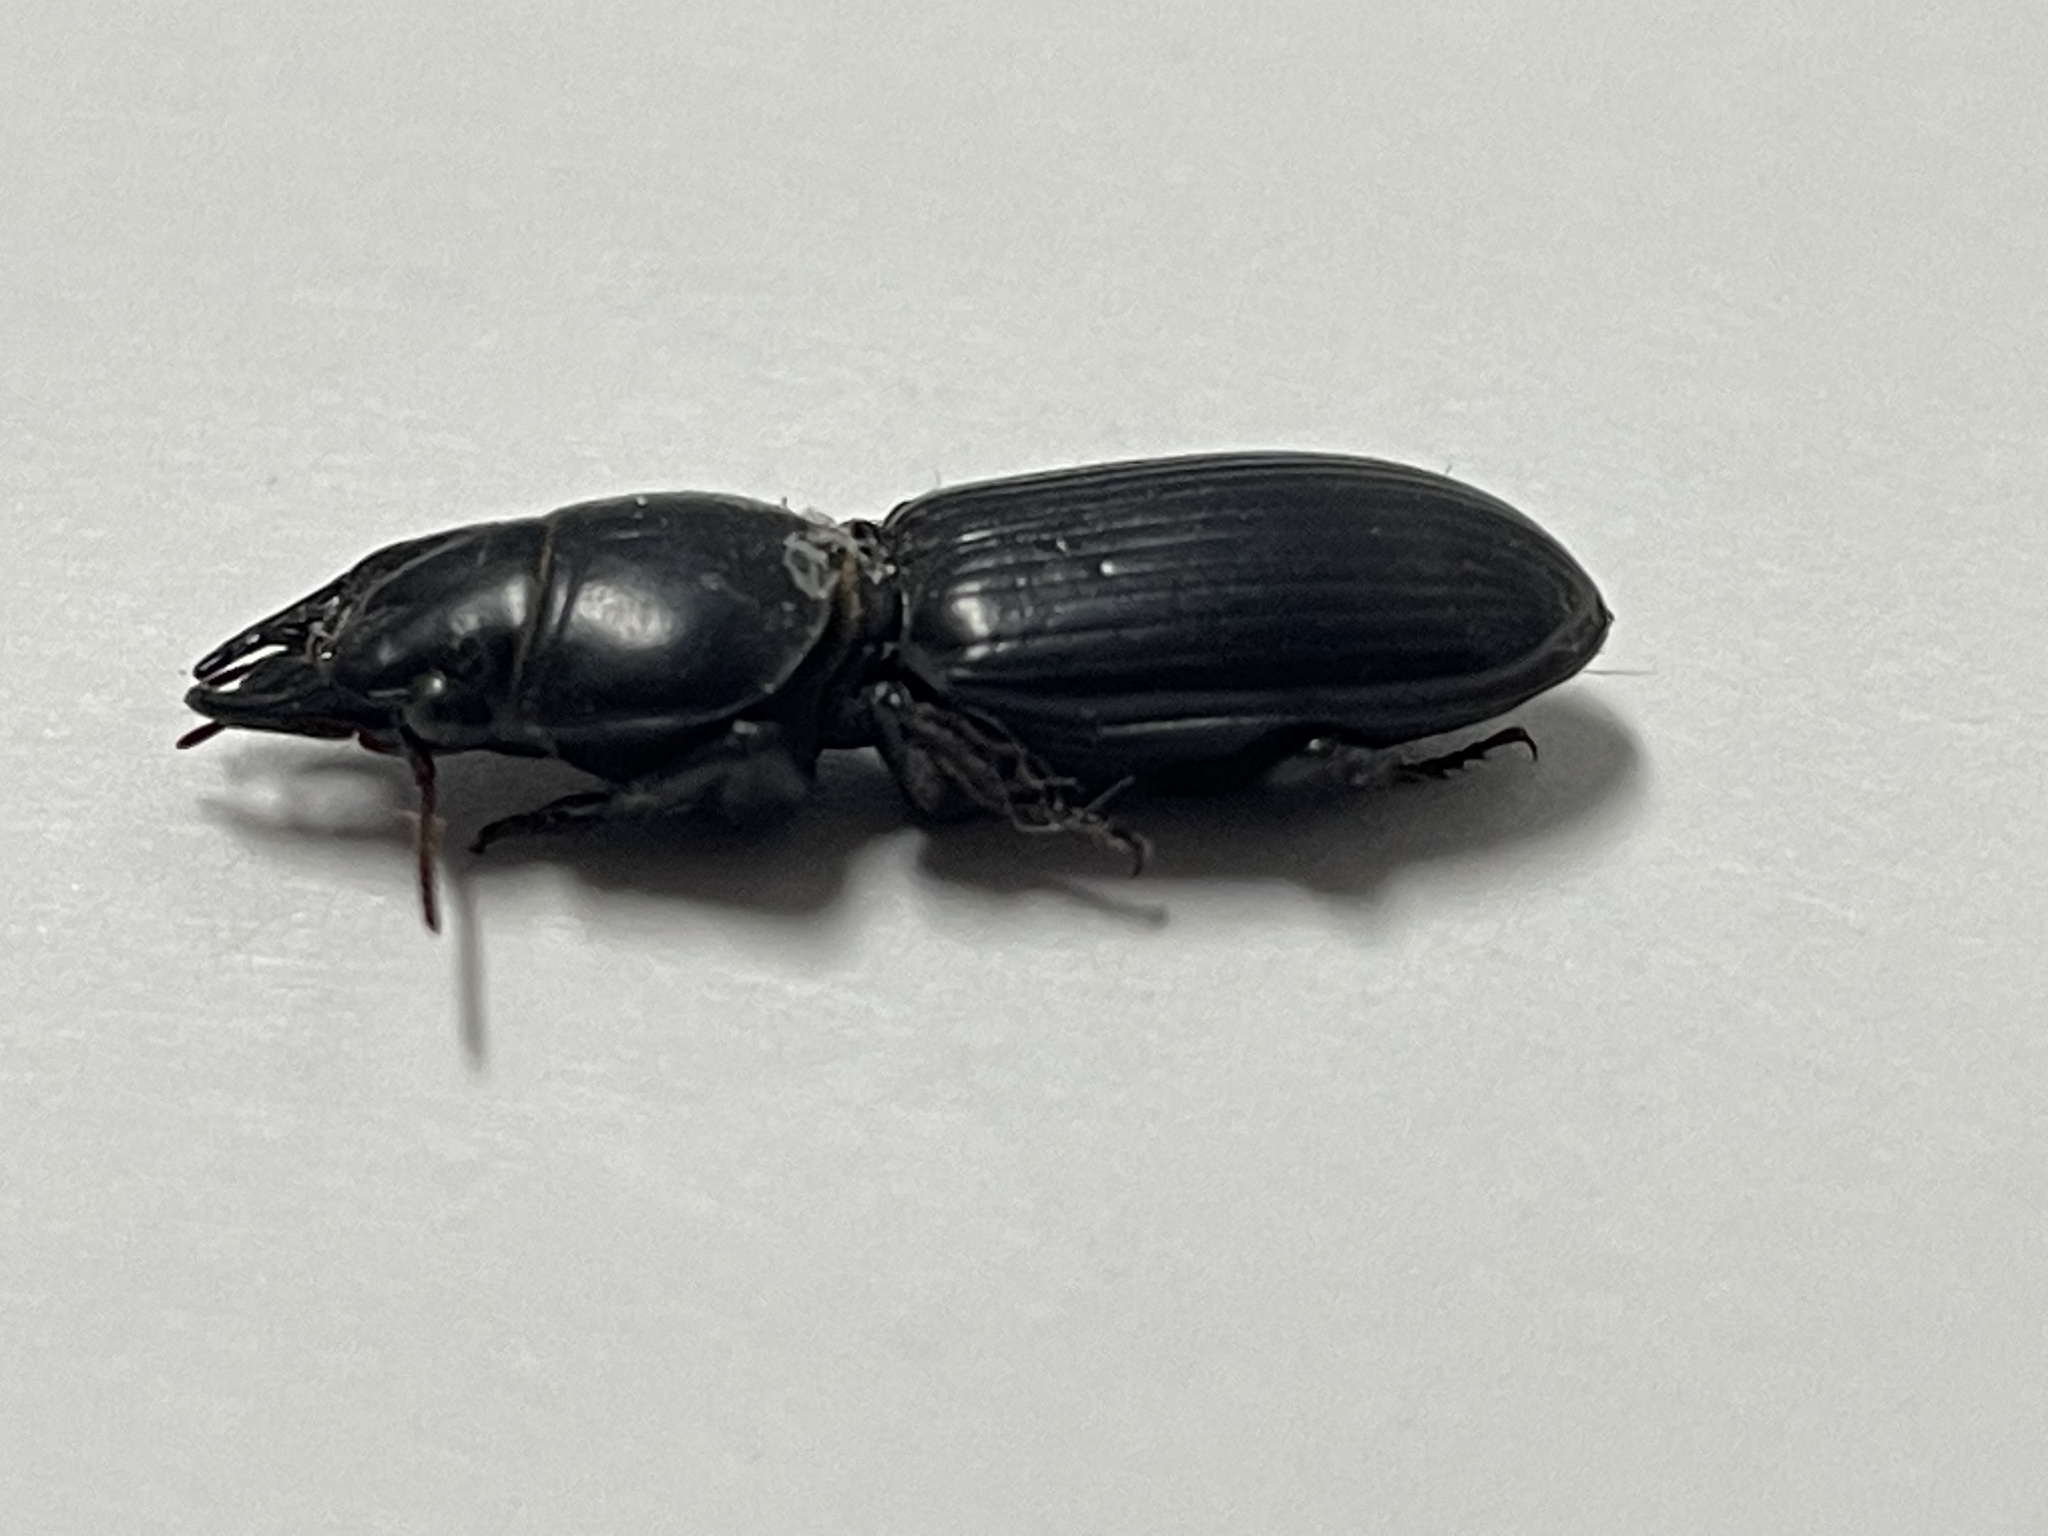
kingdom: Animalia
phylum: Arthropoda
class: Insecta
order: Coleoptera
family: Carabidae
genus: Scarites
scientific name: Scarites subterraneus
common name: Big-headed ground beetle
